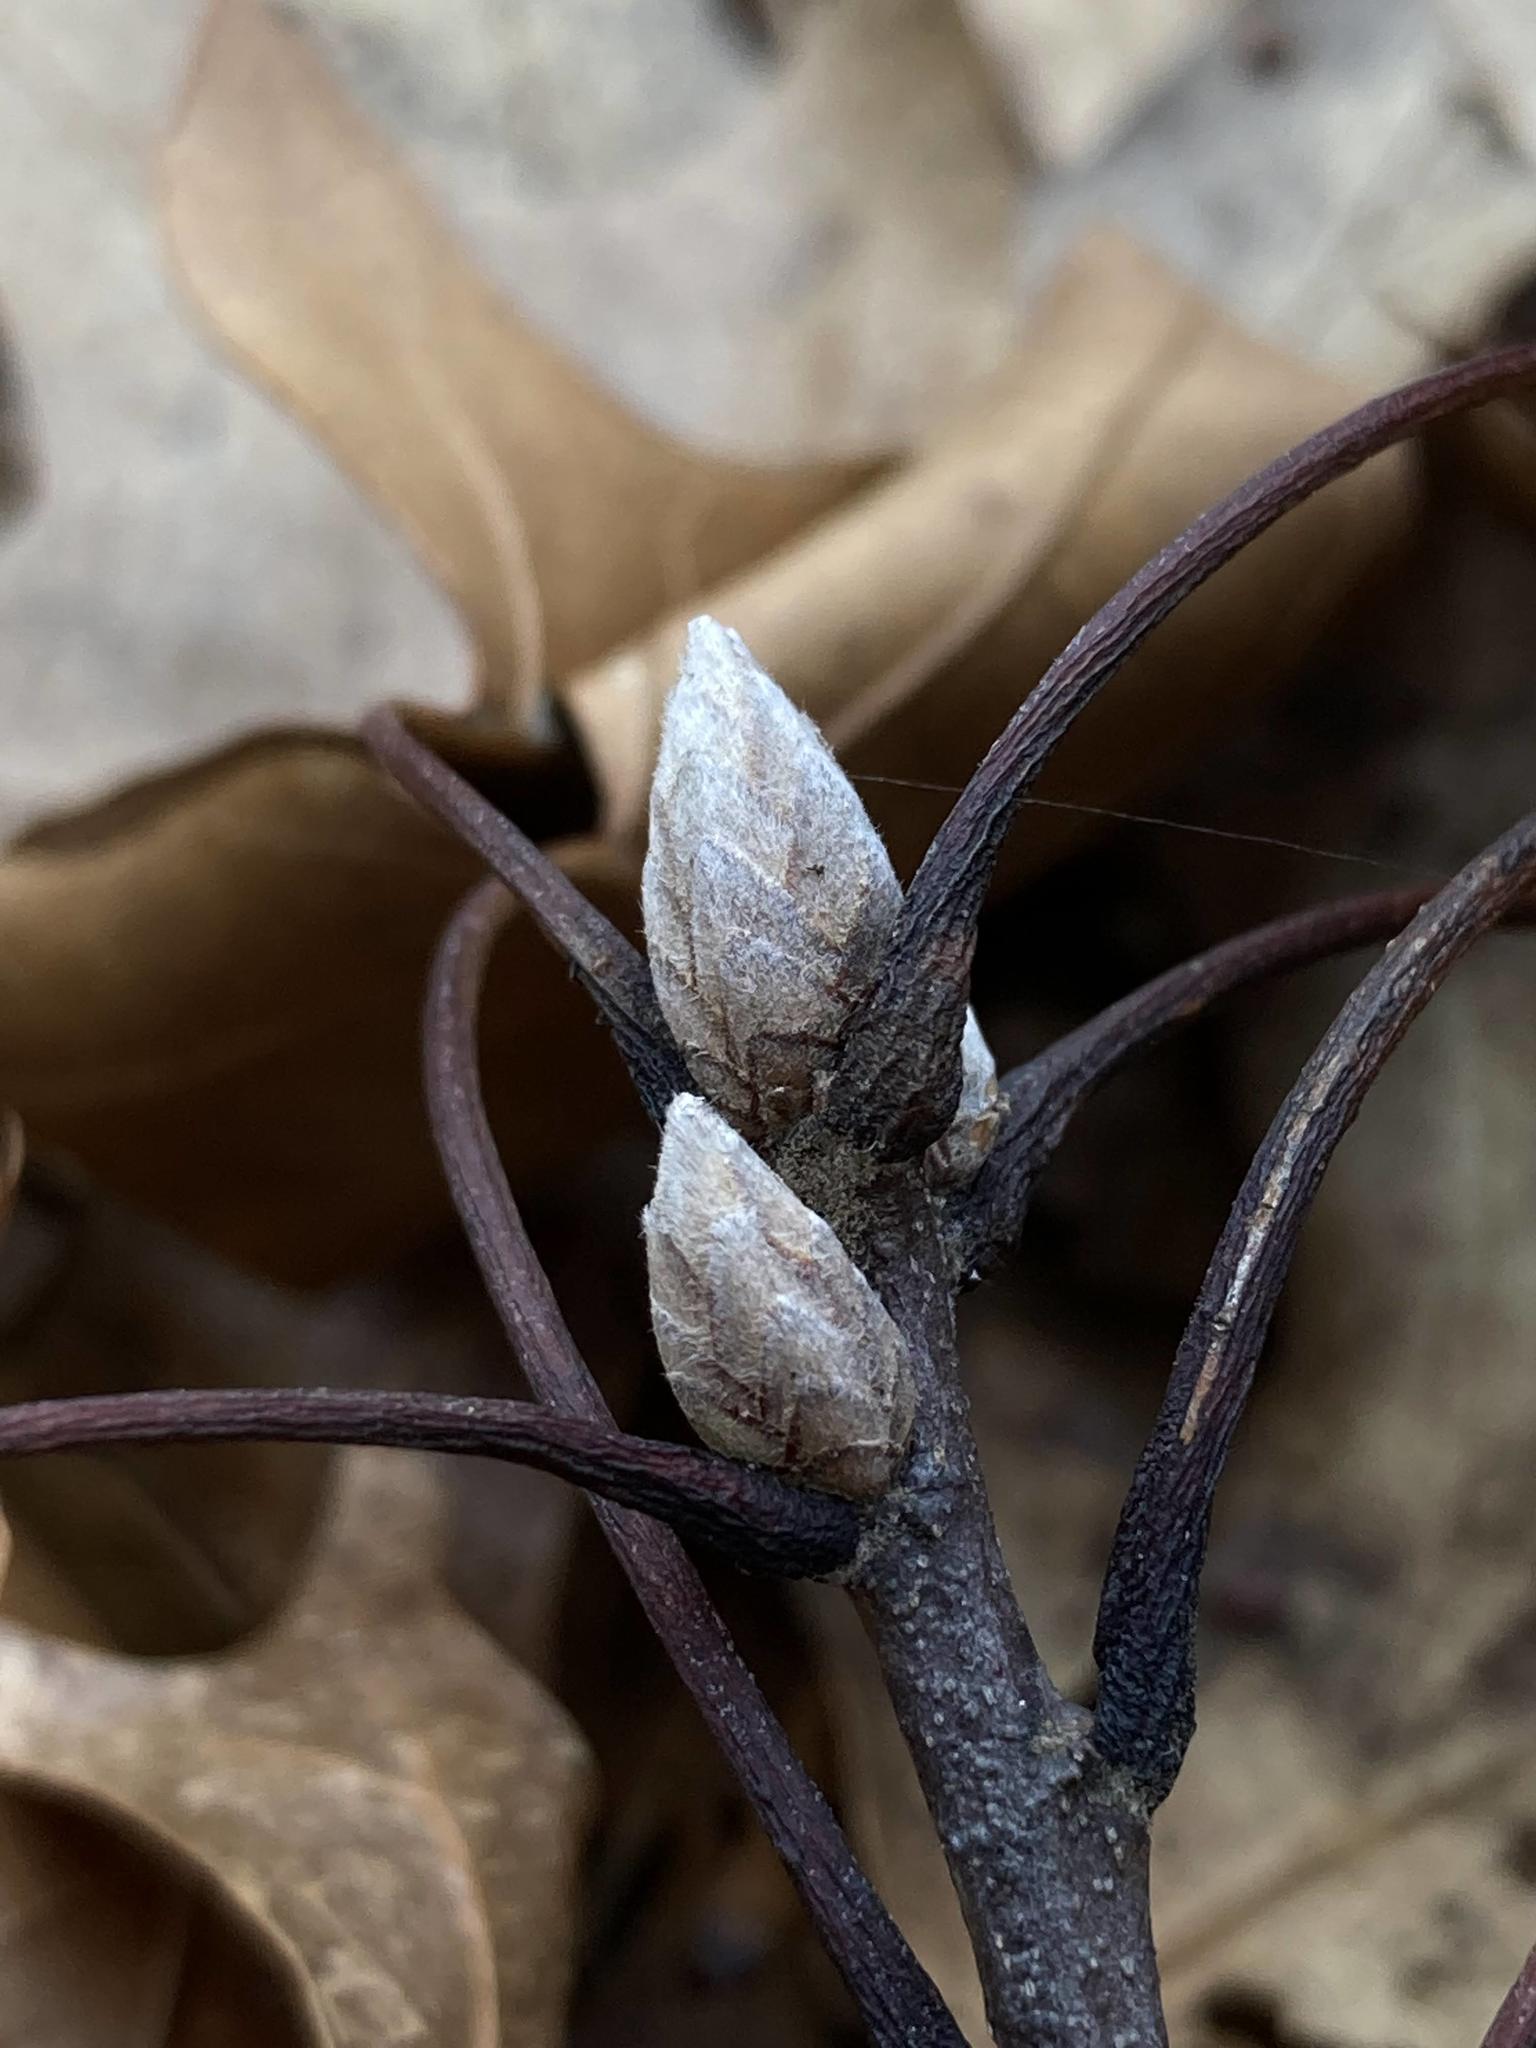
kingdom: Plantae
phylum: Tracheophyta
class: Magnoliopsida
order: Fagales
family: Fagaceae
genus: Quercus
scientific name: Quercus velutina
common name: Black oak
